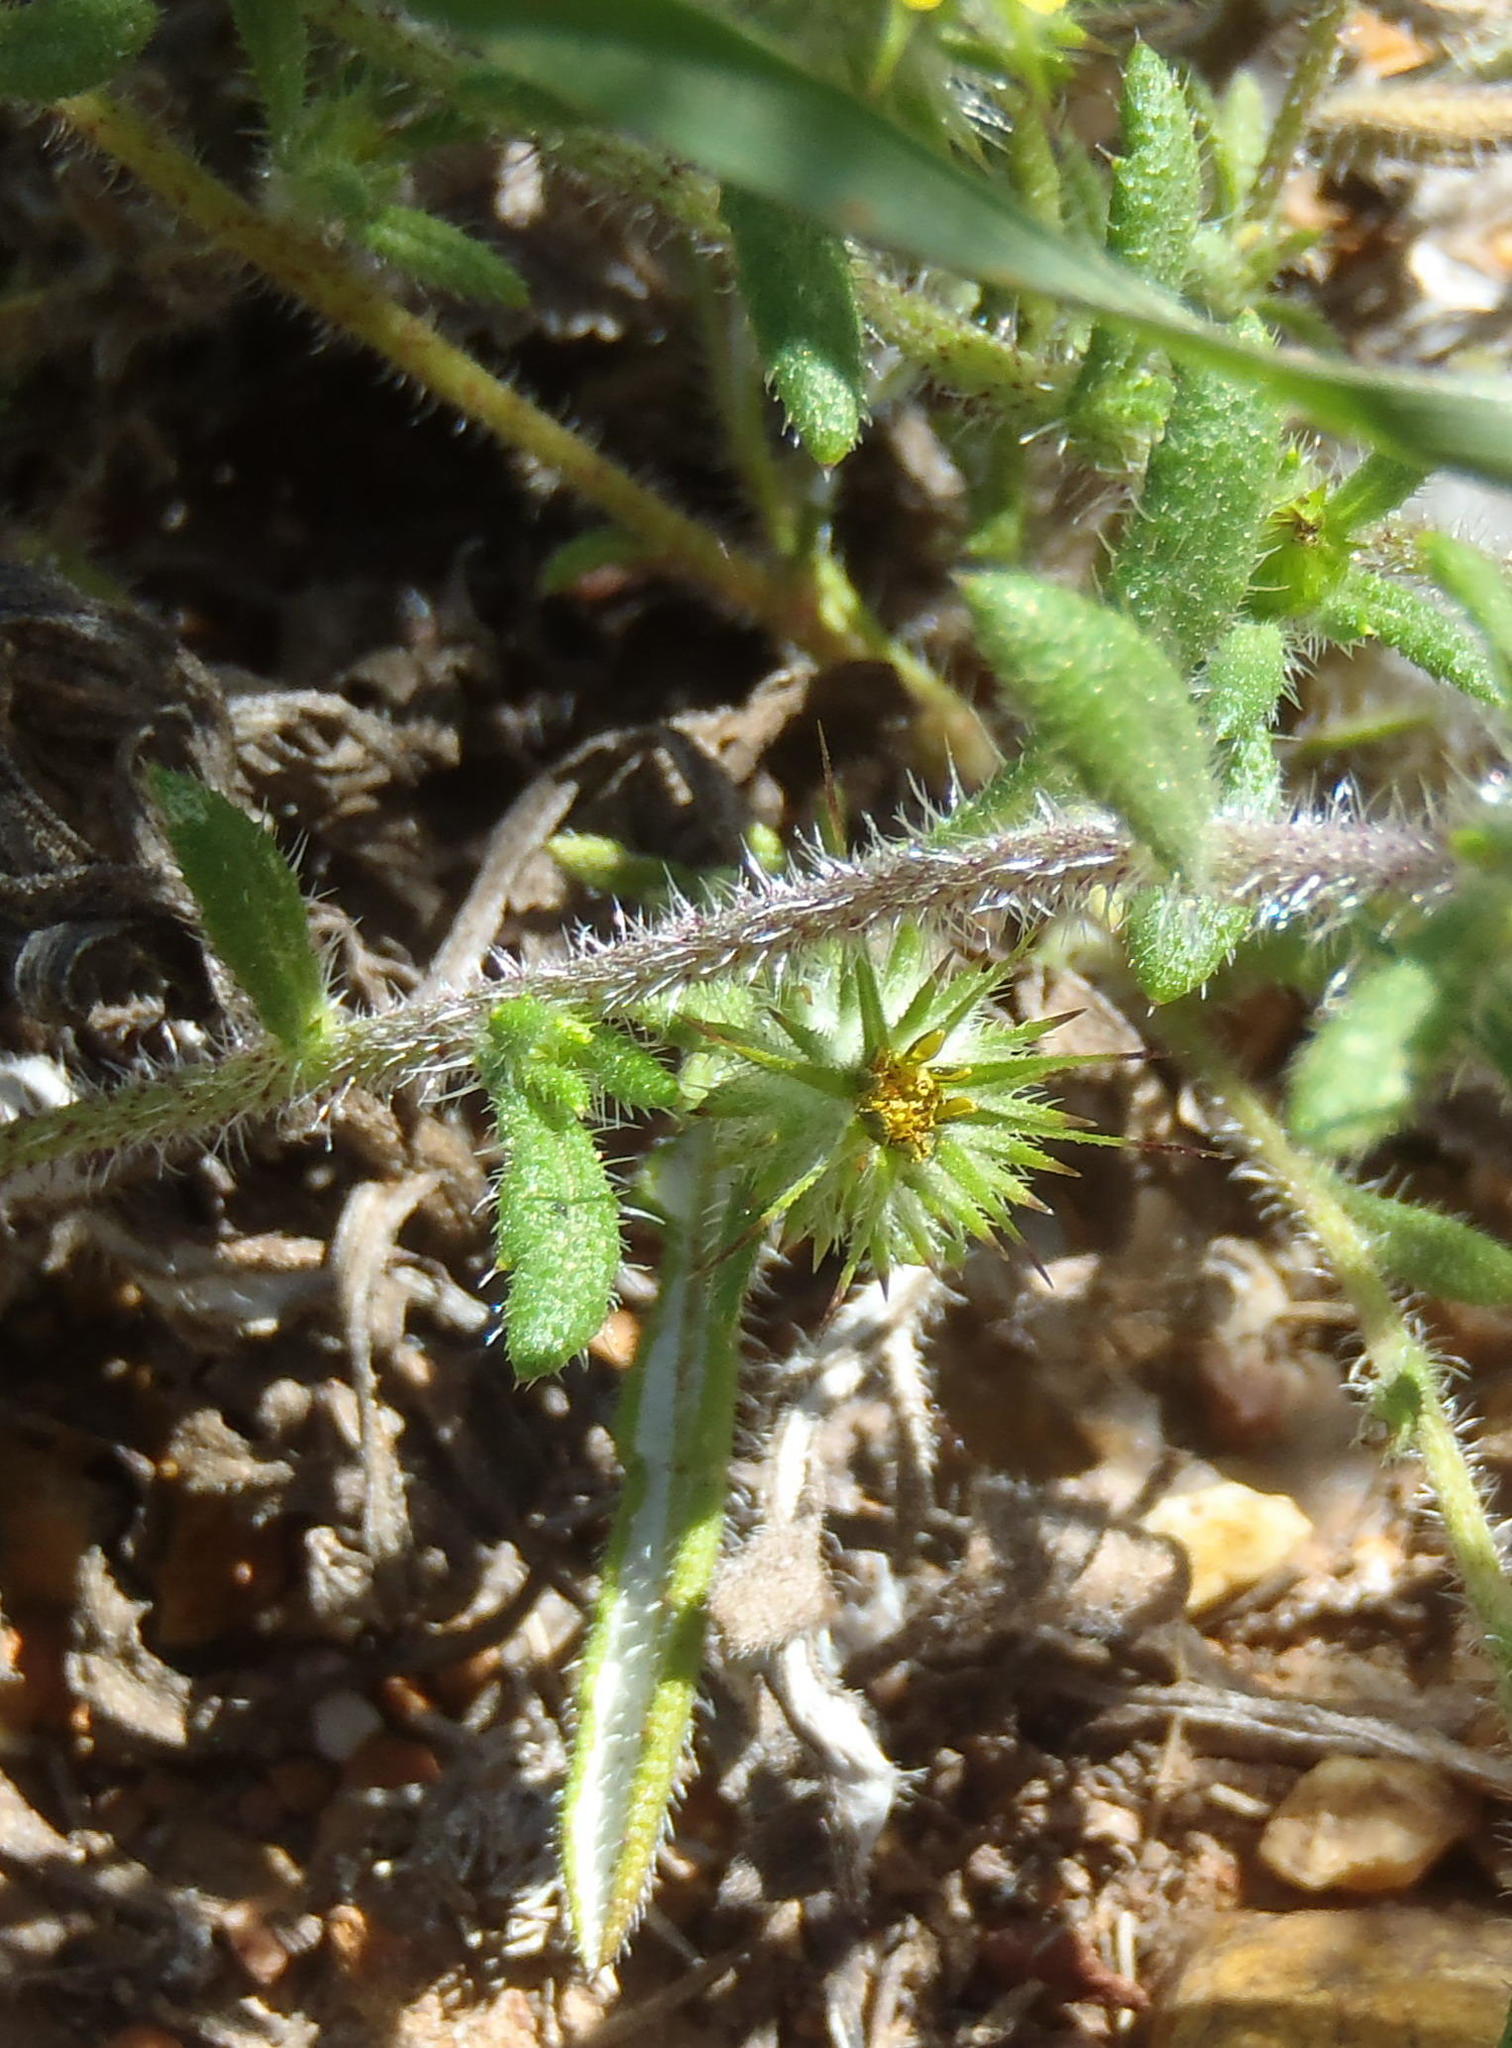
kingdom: Plantae
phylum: Tracheophyta
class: Magnoliopsida
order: Asterales
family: Asteraceae
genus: Gorteria
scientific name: Gorteria personata
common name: Gorteria
